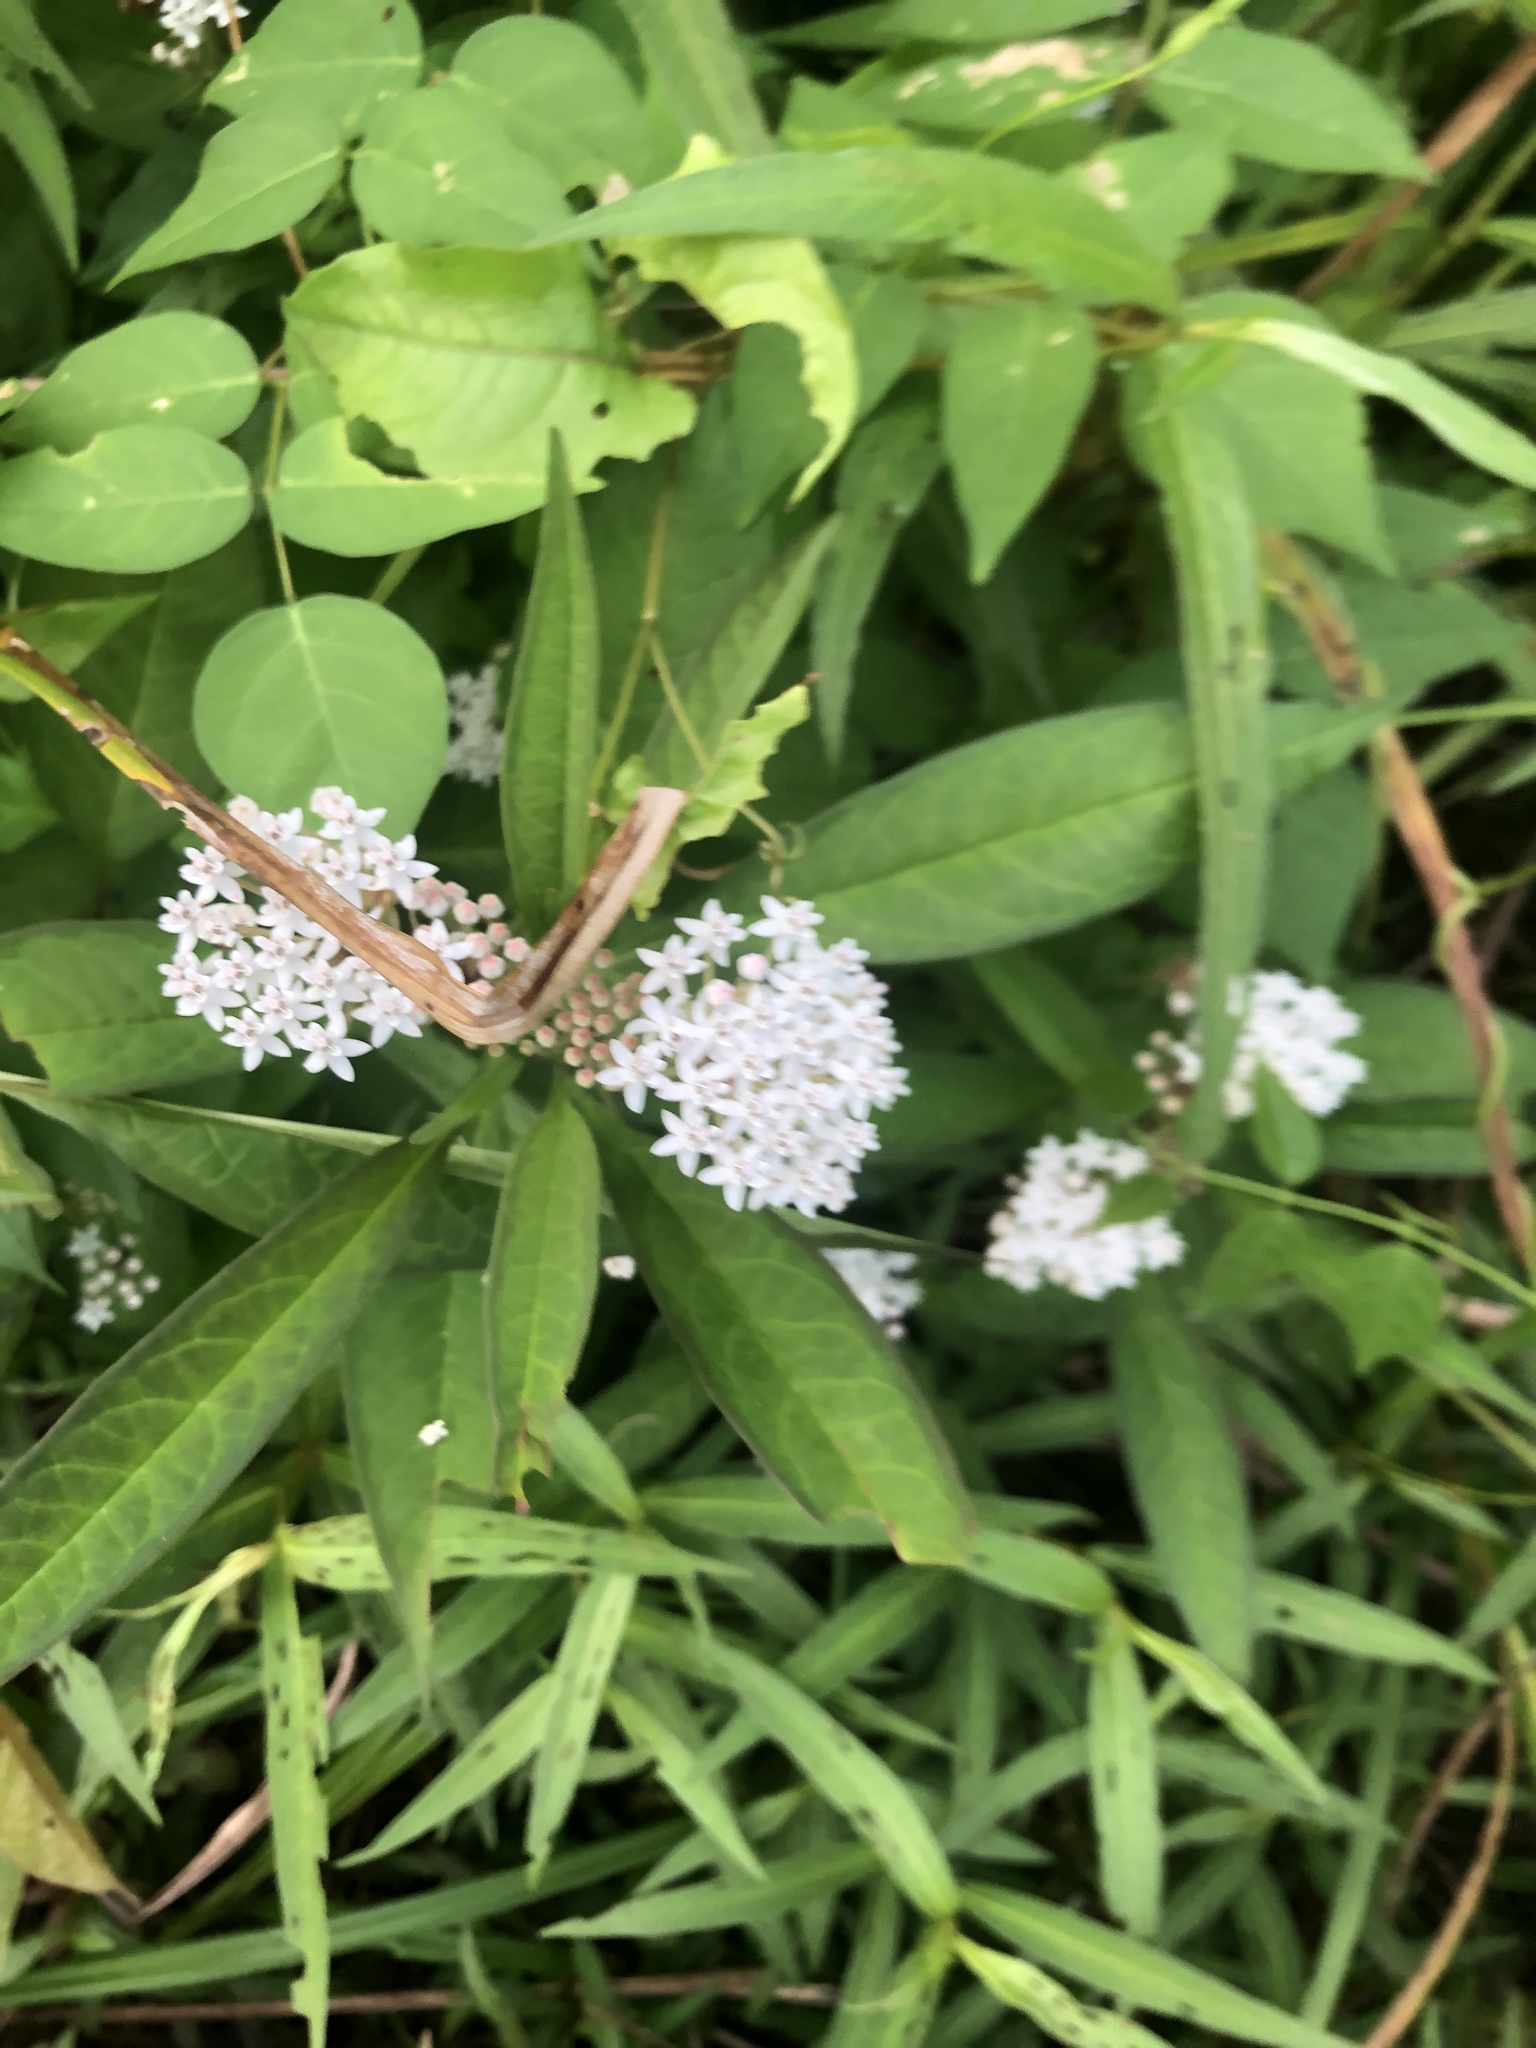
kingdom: Plantae
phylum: Tracheophyta
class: Magnoliopsida
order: Gentianales
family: Apocynaceae
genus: Asclepias
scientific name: Asclepias perennis
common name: Smooth-seed milkweed
